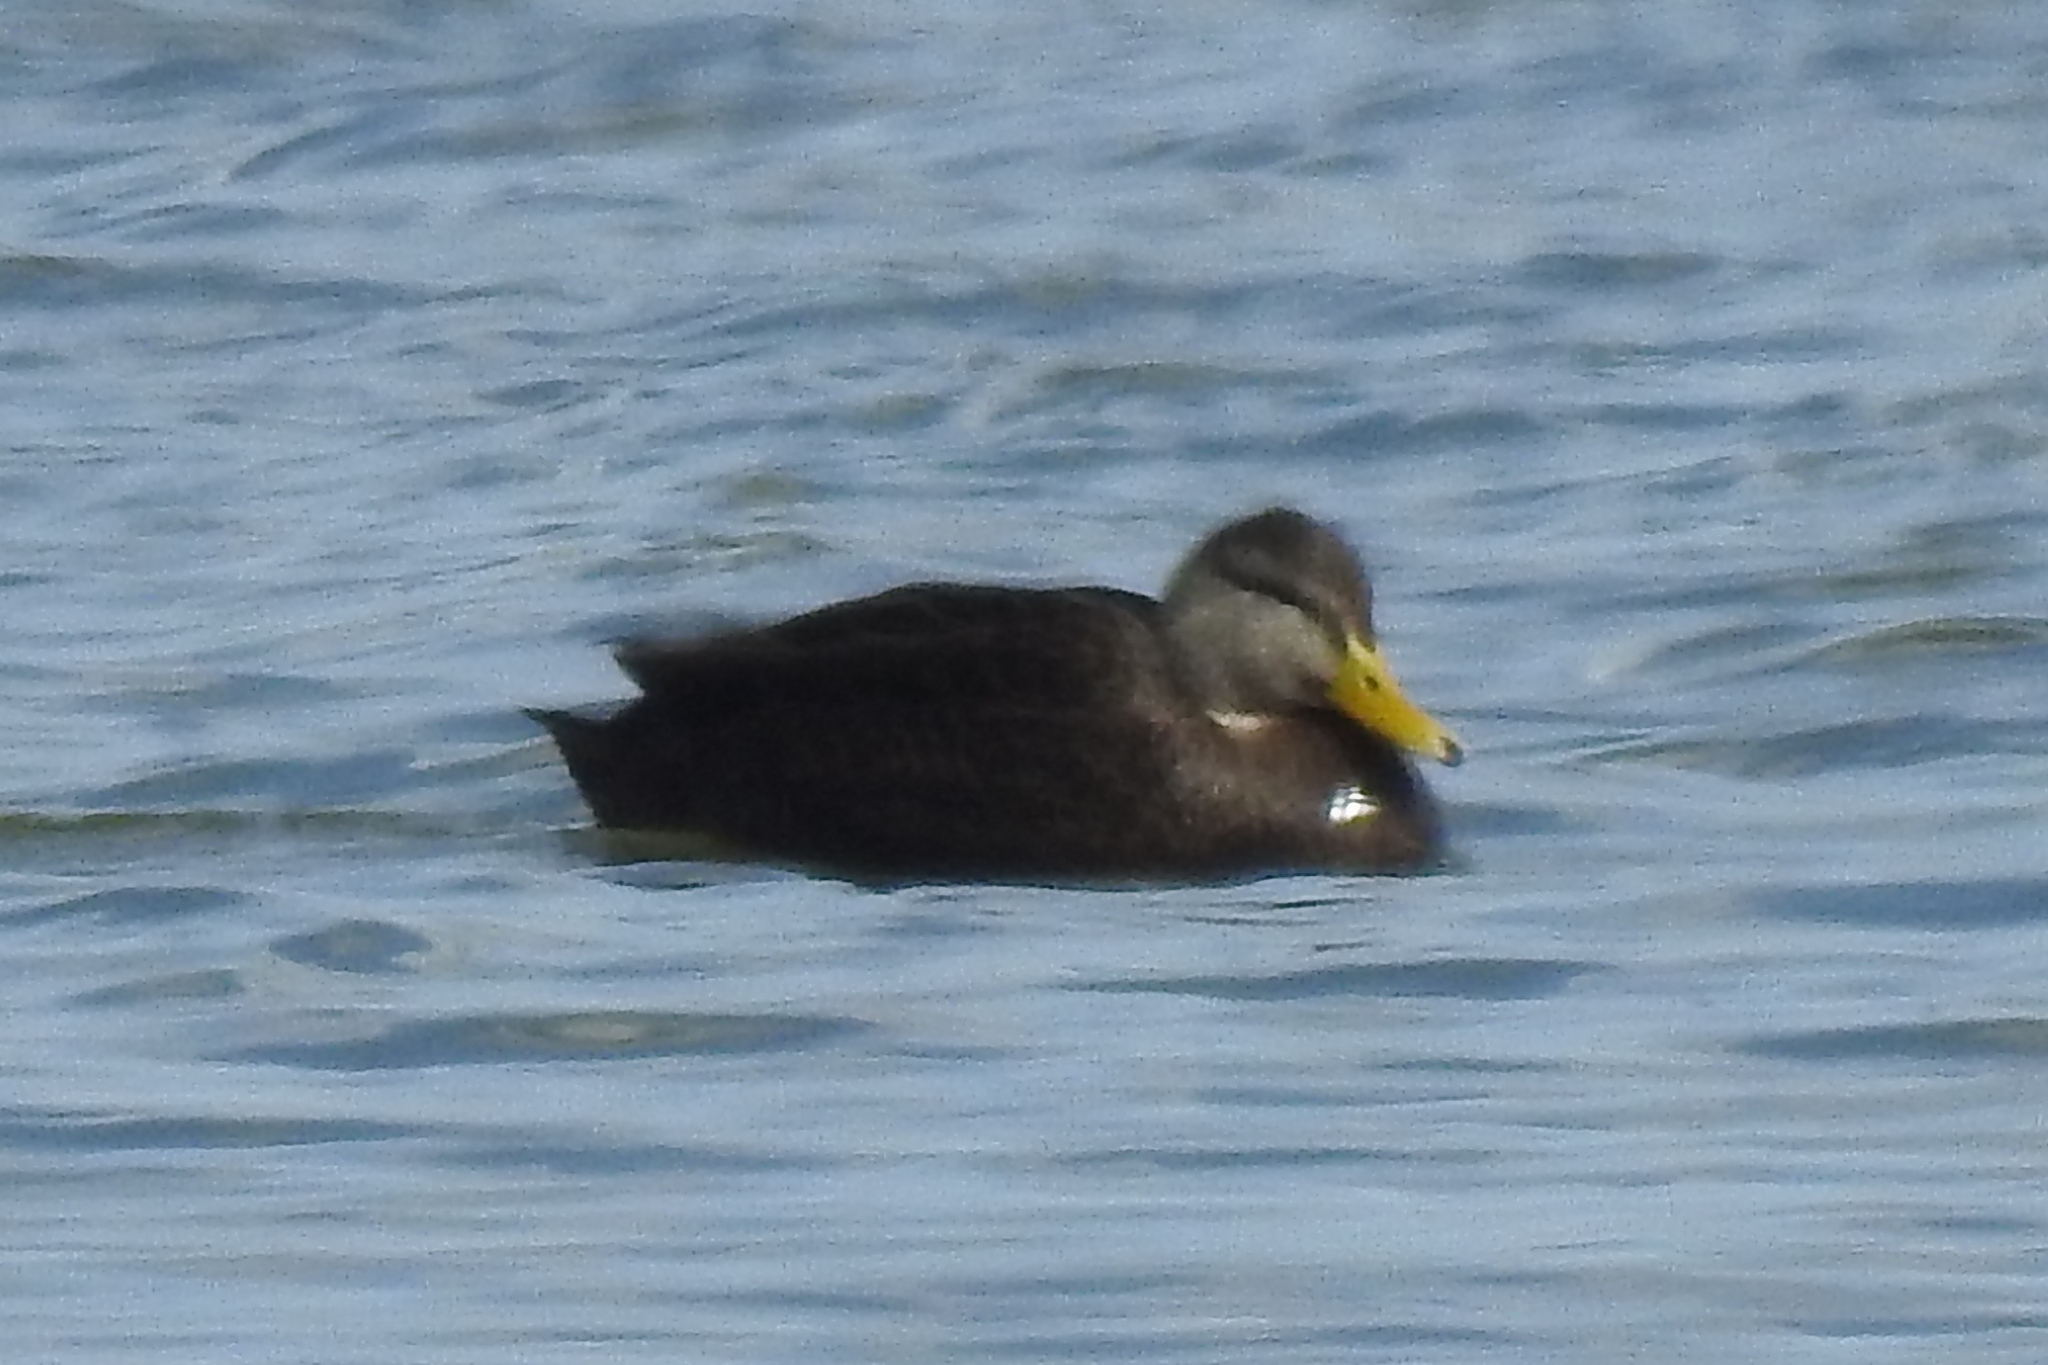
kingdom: Animalia
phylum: Chordata
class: Aves
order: Anseriformes
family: Anatidae
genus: Anas
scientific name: Anas rubripes
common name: American black duck
